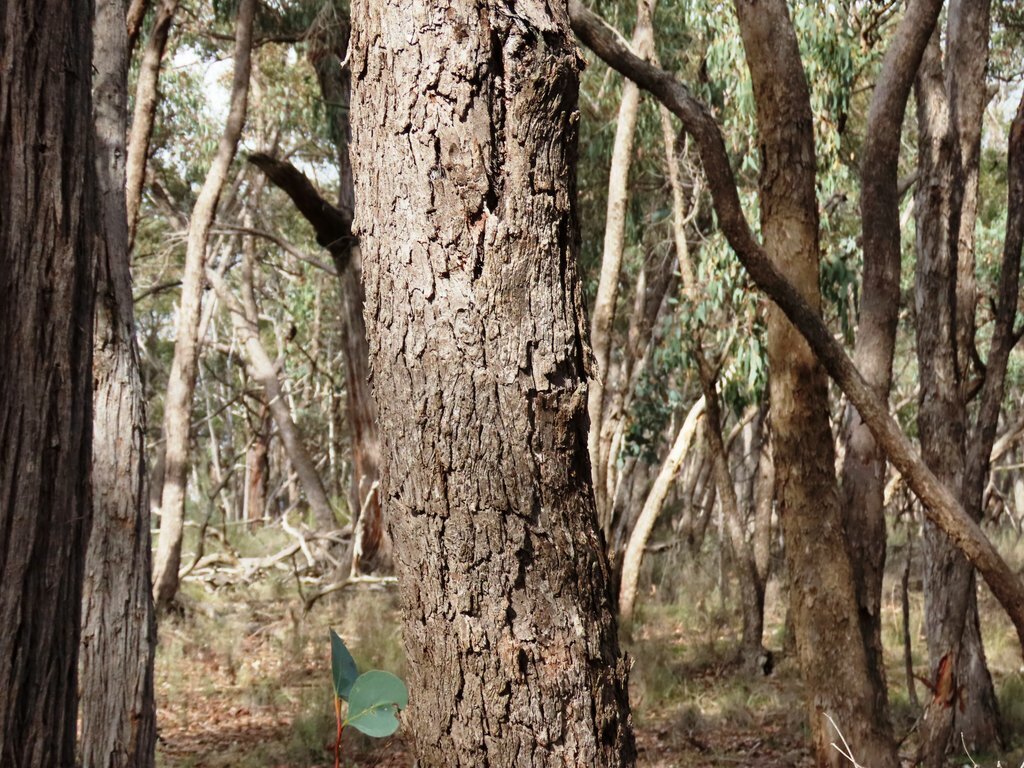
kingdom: Plantae
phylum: Tracheophyta
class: Magnoliopsida
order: Myrtales
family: Myrtaceae
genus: Eucalyptus
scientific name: Eucalyptus polyanthemos
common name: Red-box
